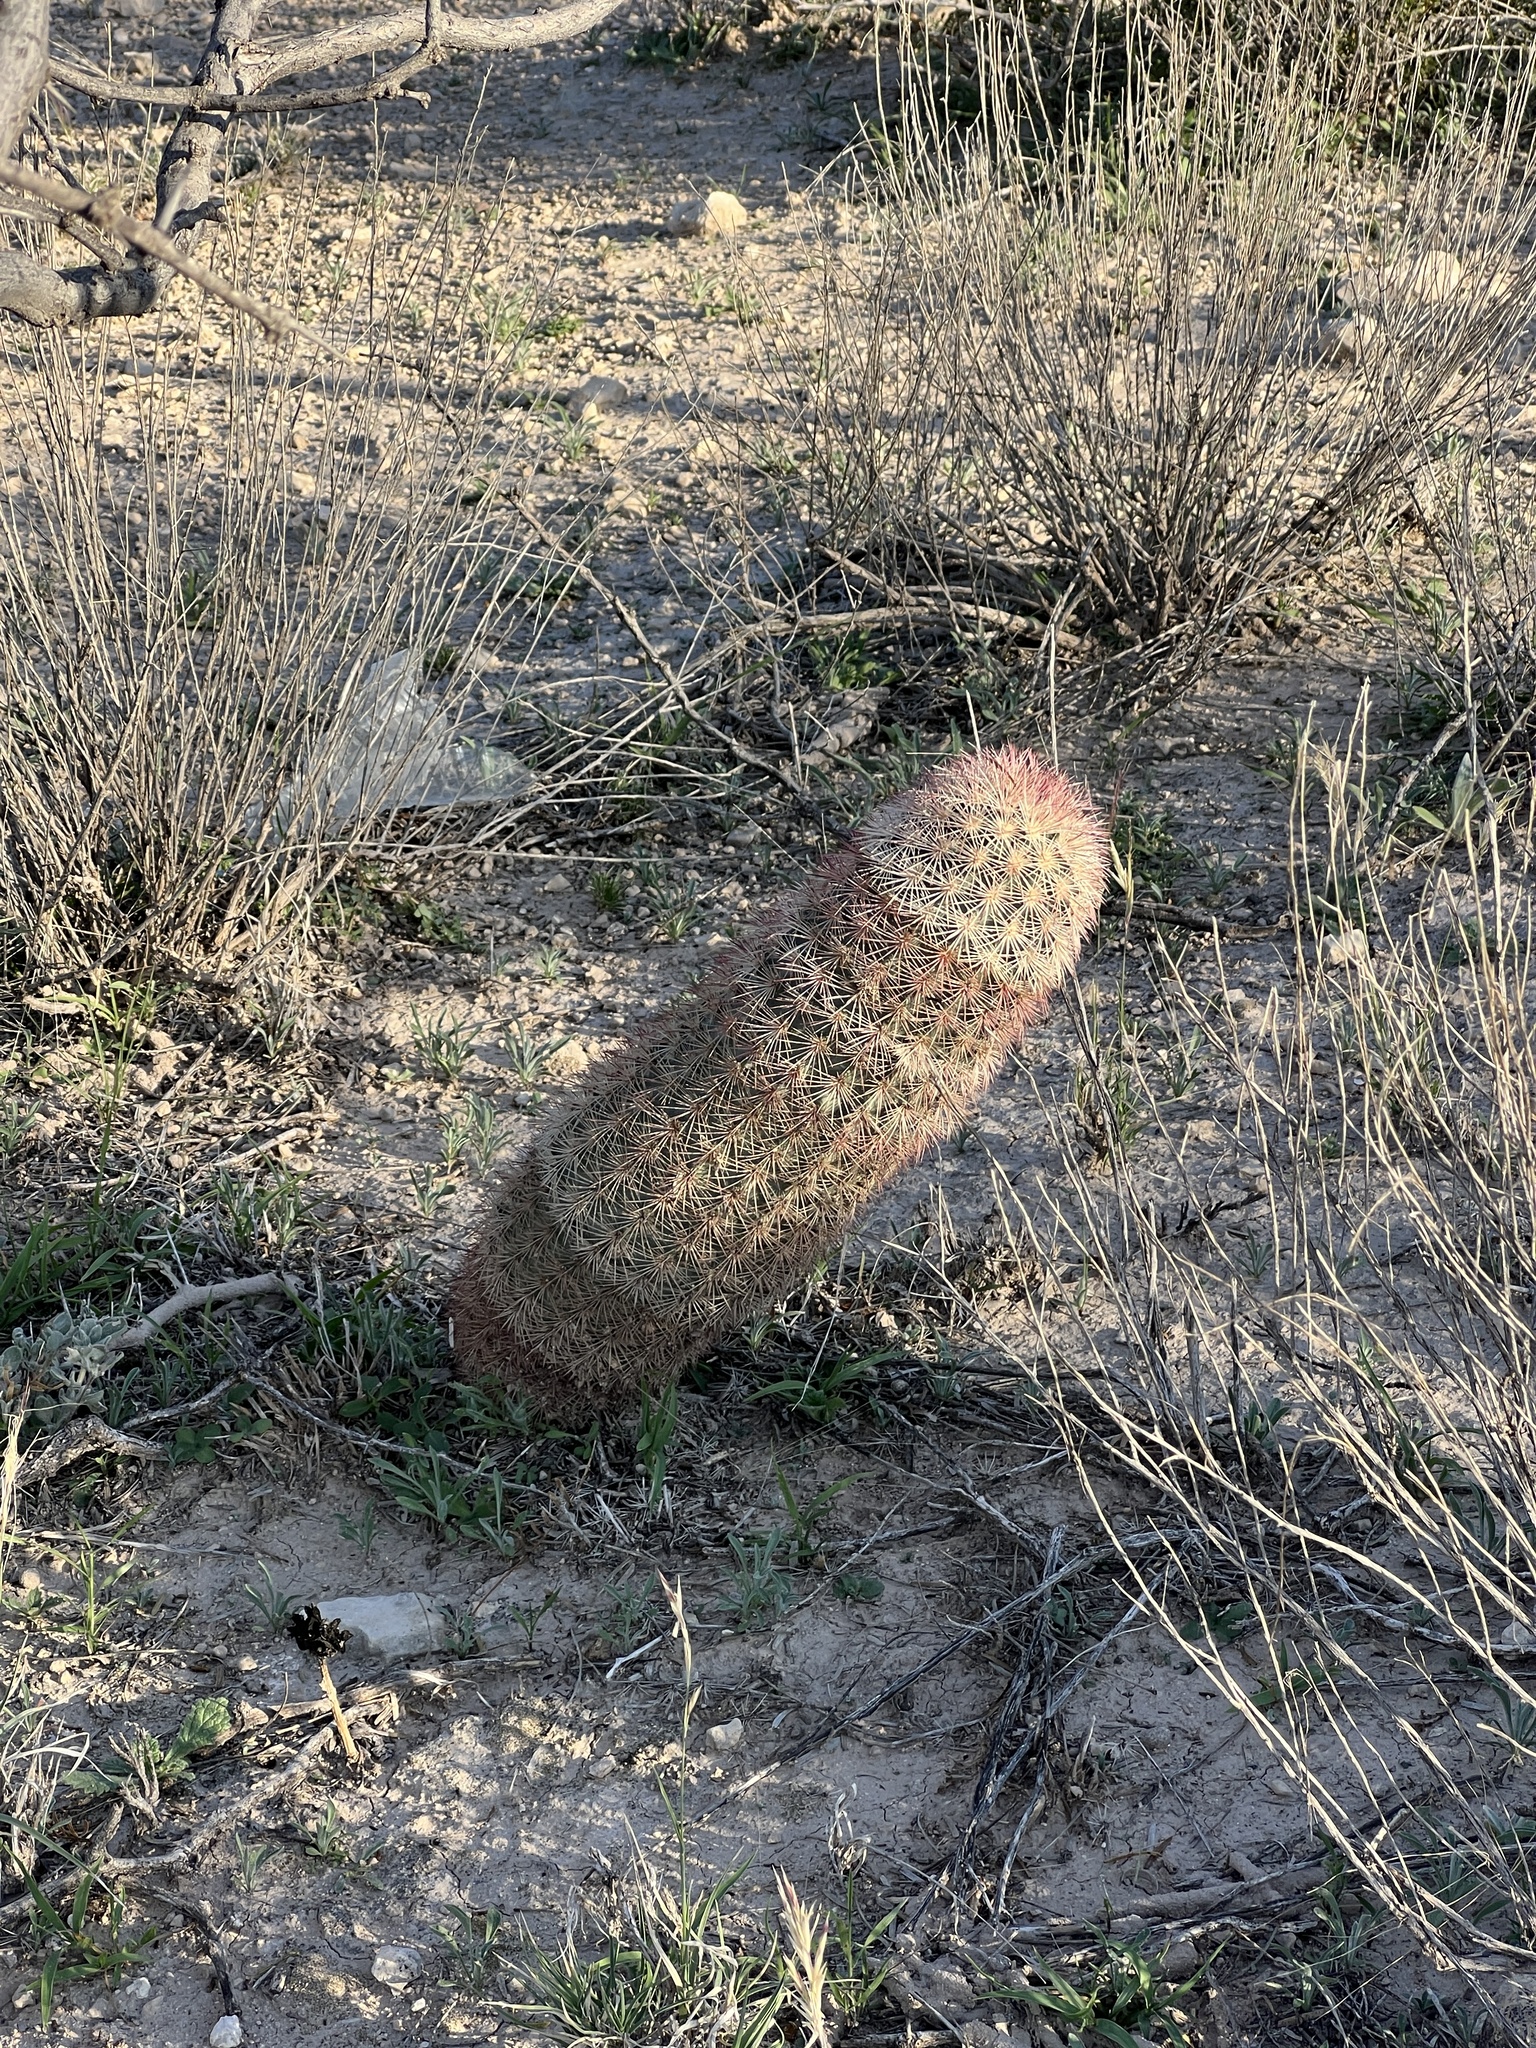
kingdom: Plantae
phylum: Tracheophyta
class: Magnoliopsida
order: Caryophyllales
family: Cactaceae
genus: Echinocereus
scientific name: Echinocereus dasyacanthus
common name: Spiny hedgehog cactus
